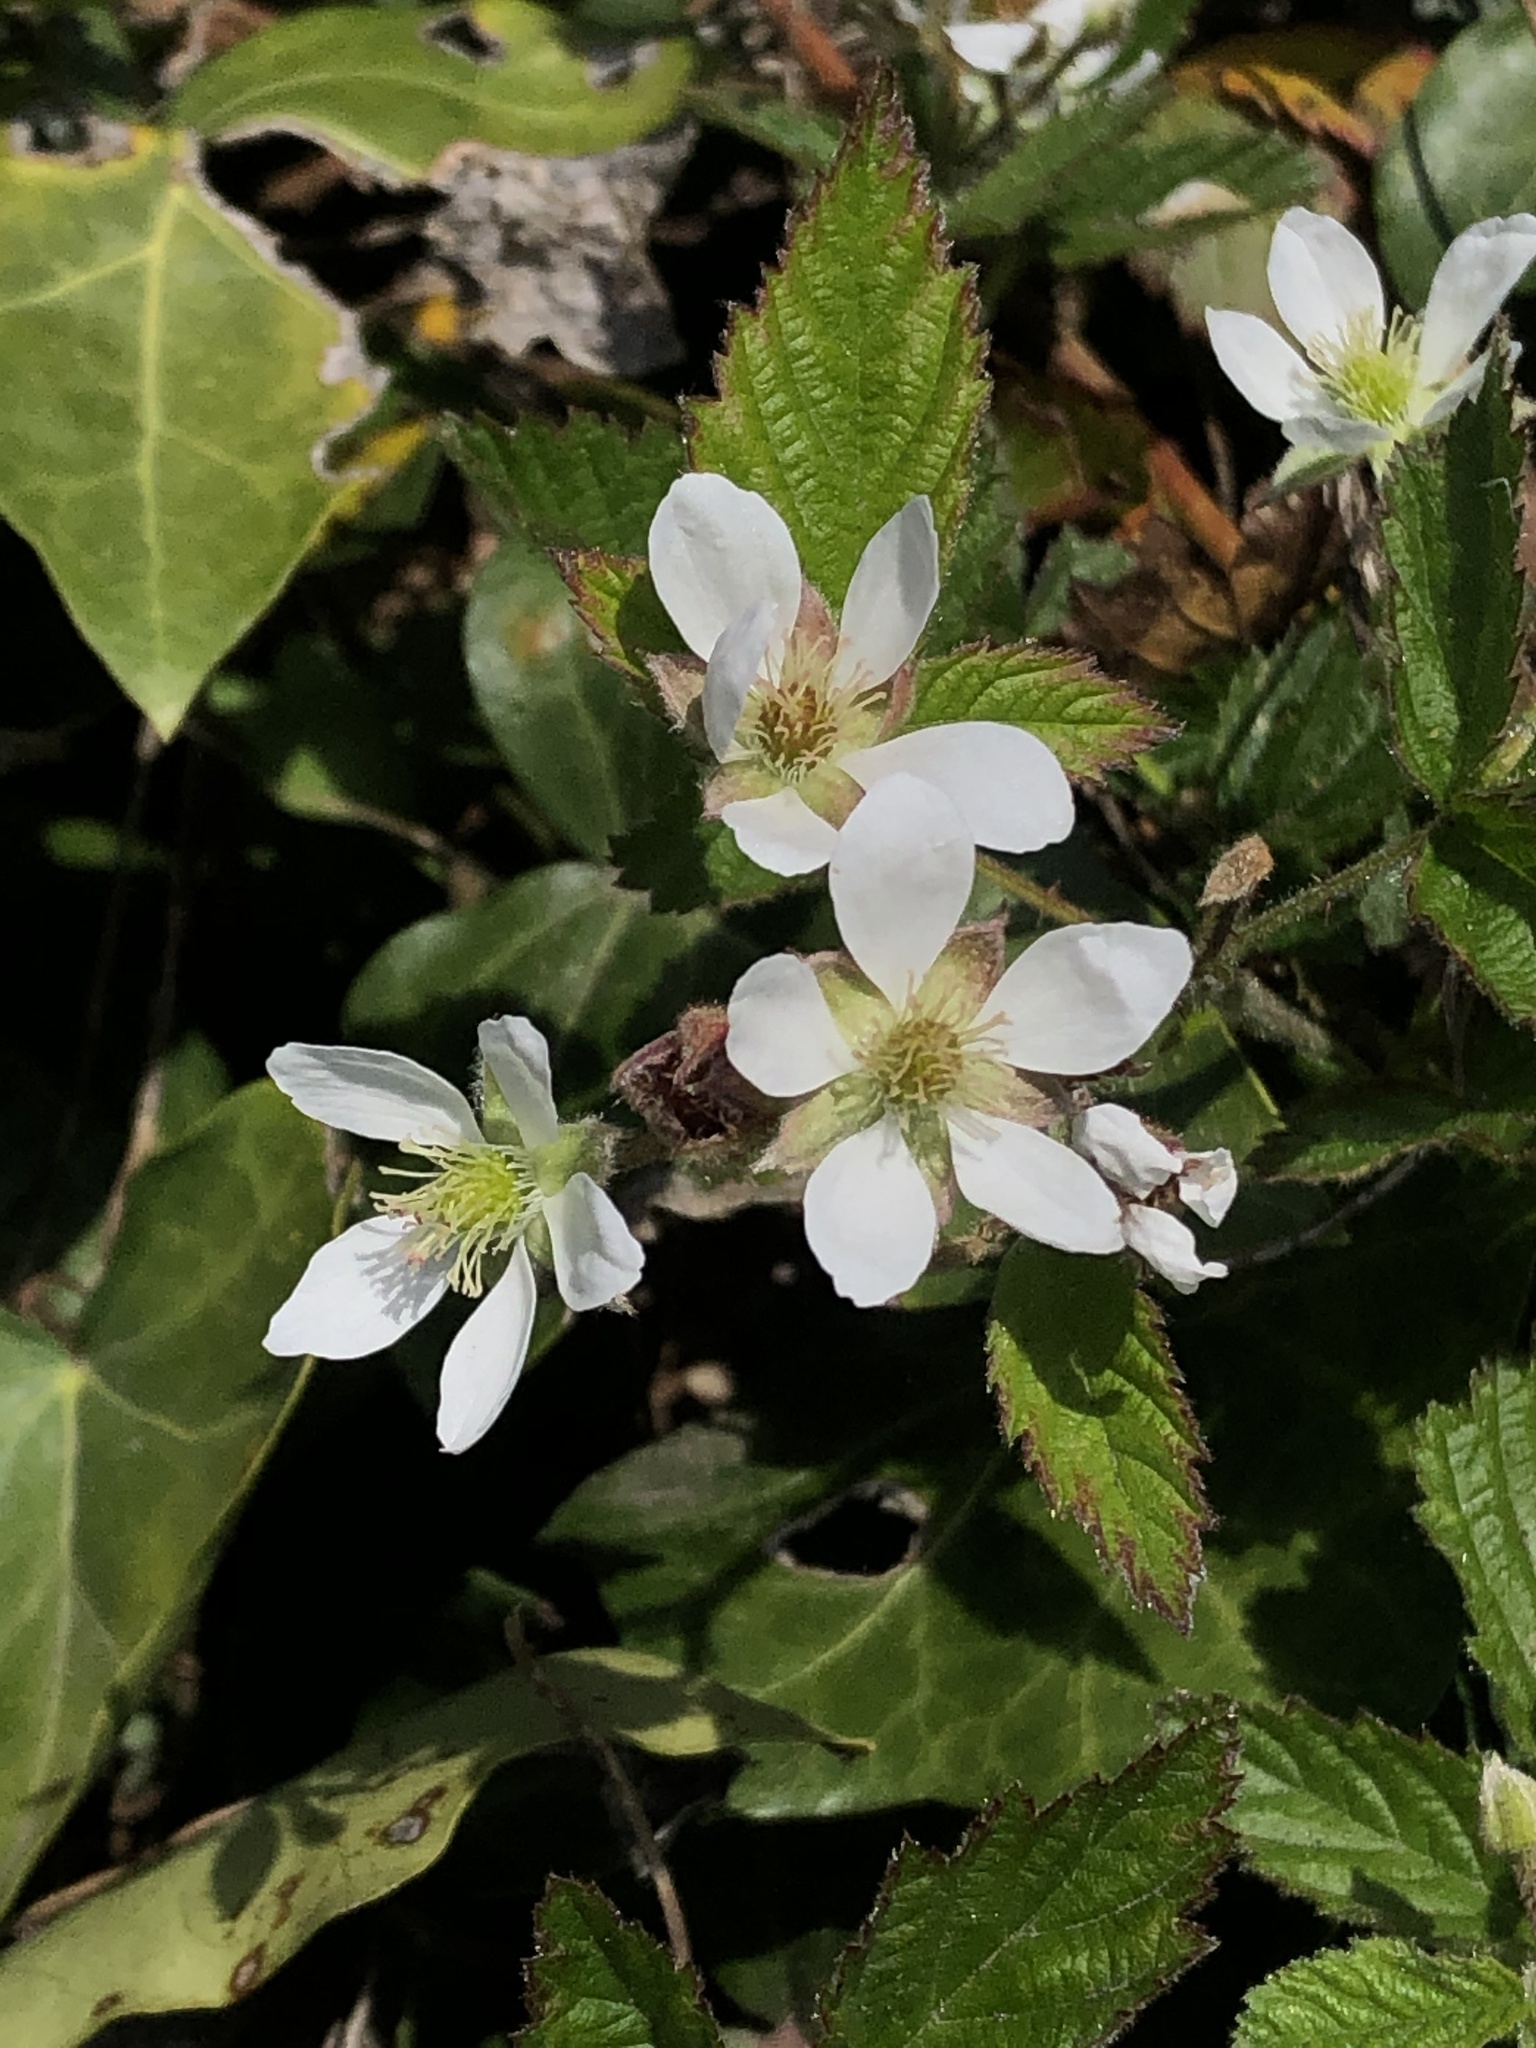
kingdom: Plantae
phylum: Tracheophyta
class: Magnoliopsida
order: Rosales
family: Rosaceae
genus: Rubus
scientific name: Rubus ursinus
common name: Pacific blackberry
